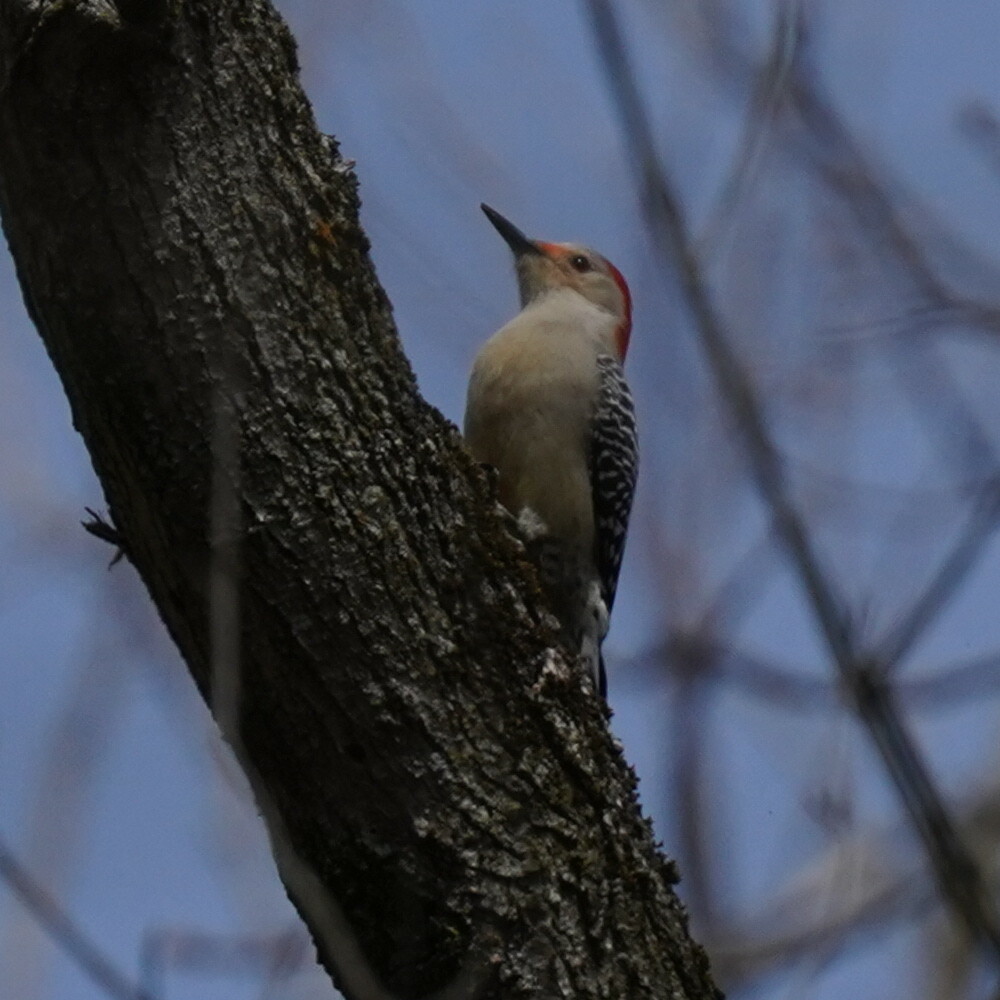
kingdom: Animalia
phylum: Chordata
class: Aves
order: Piciformes
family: Picidae
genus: Melanerpes
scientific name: Melanerpes carolinus
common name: Red-bellied woodpecker
